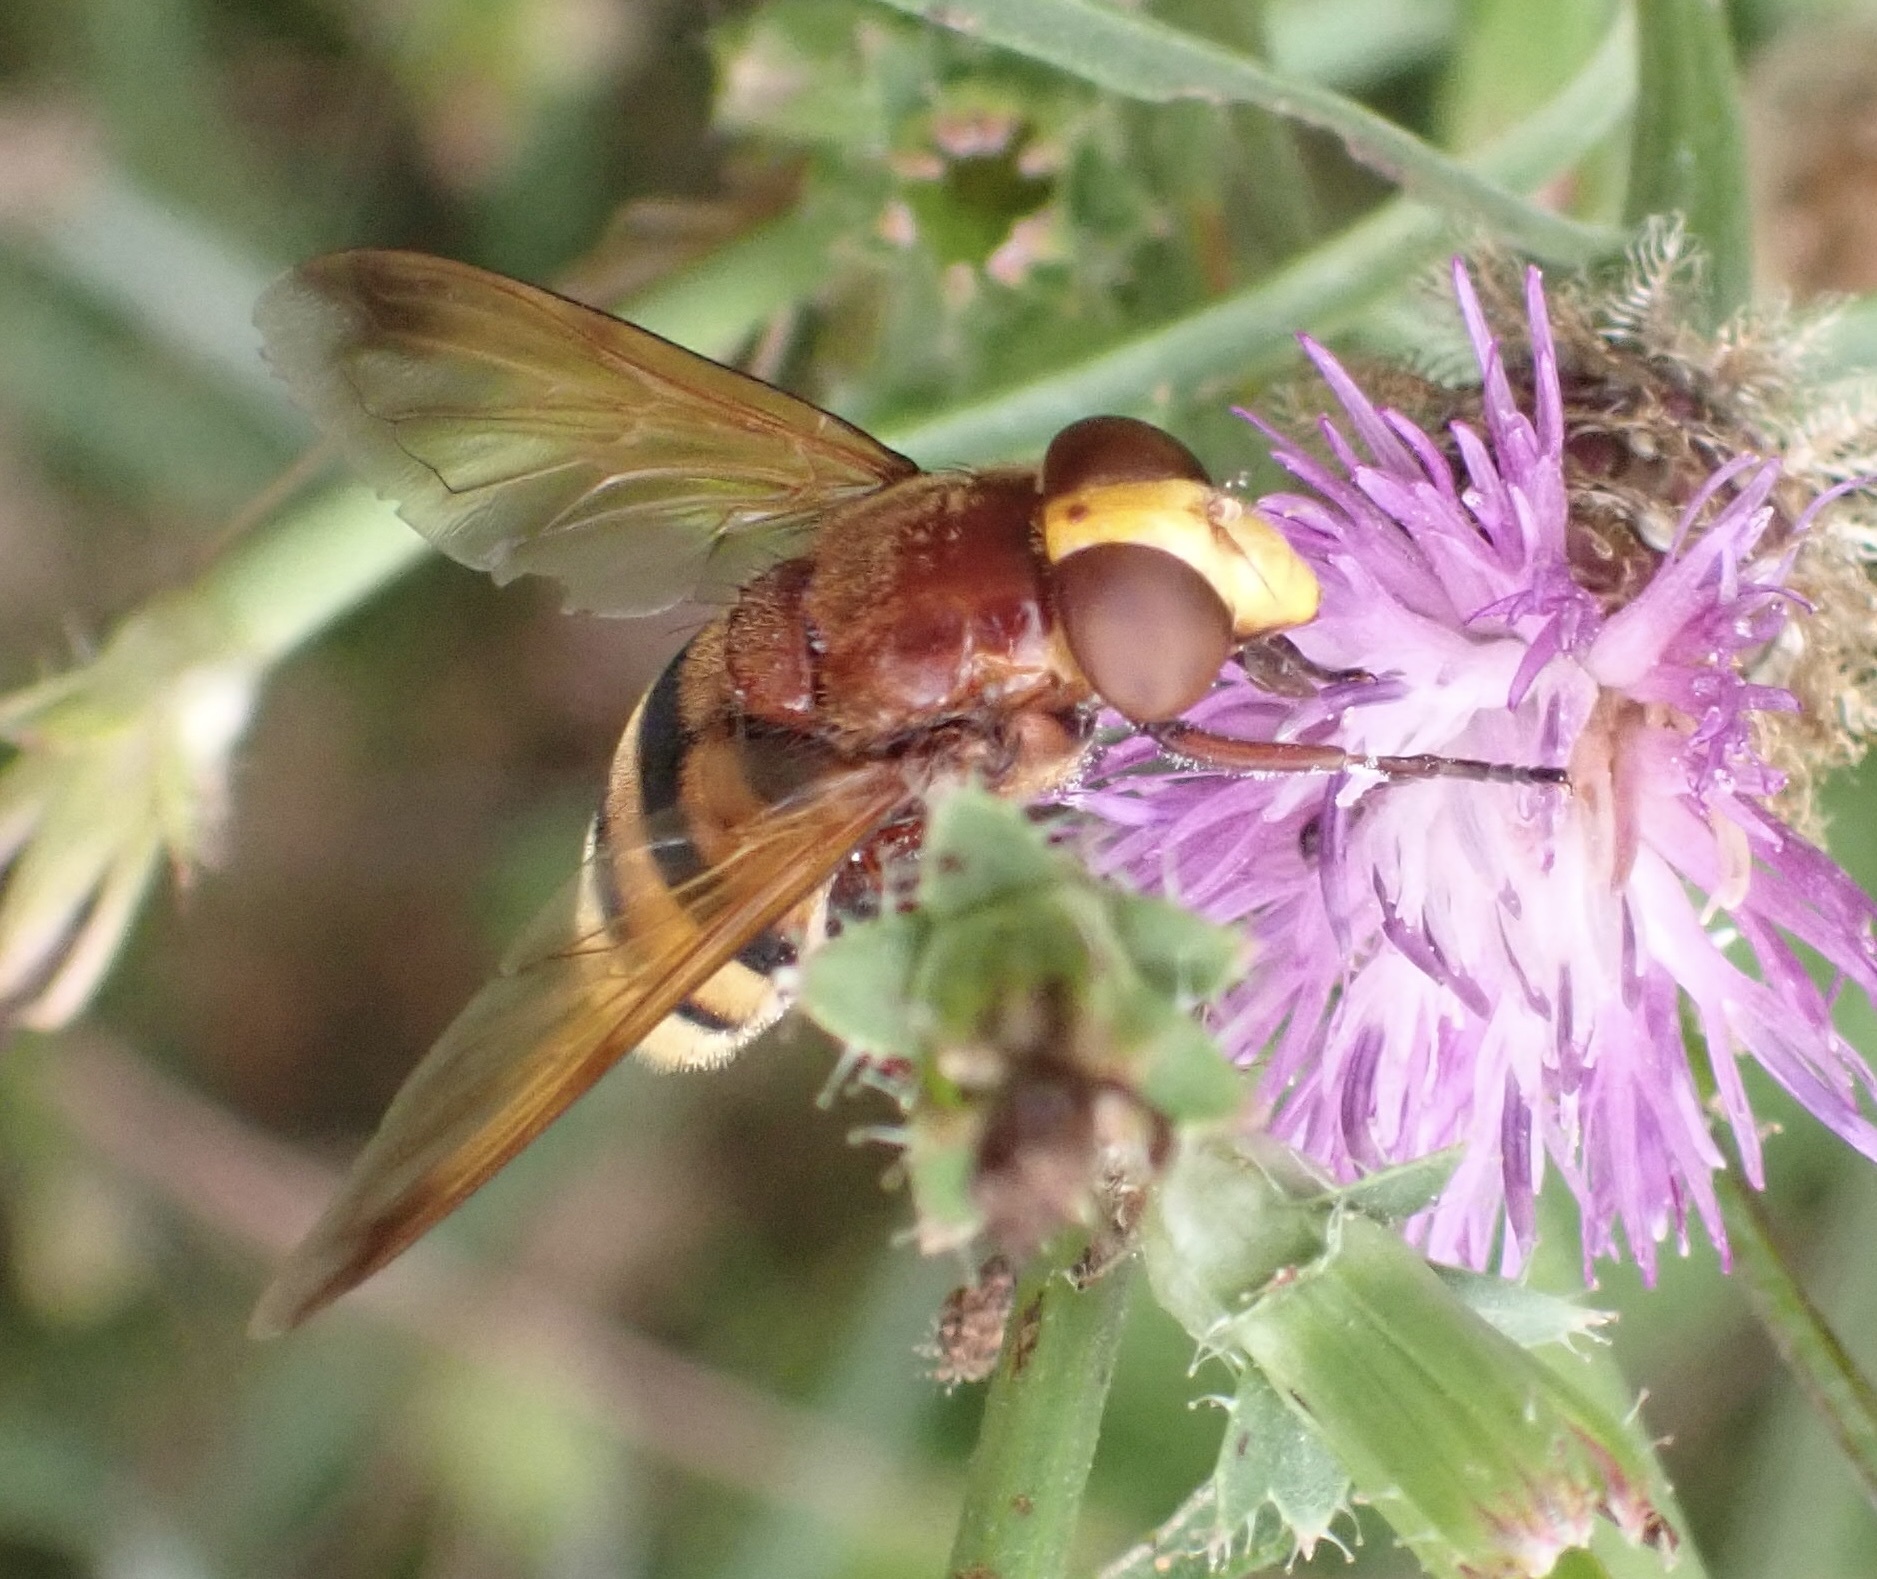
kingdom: Animalia
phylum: Arthropoda
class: Insecta
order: Diptera
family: Syrphidae
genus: Volucella
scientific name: Volucella zonaria
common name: Hornet hoverfly
